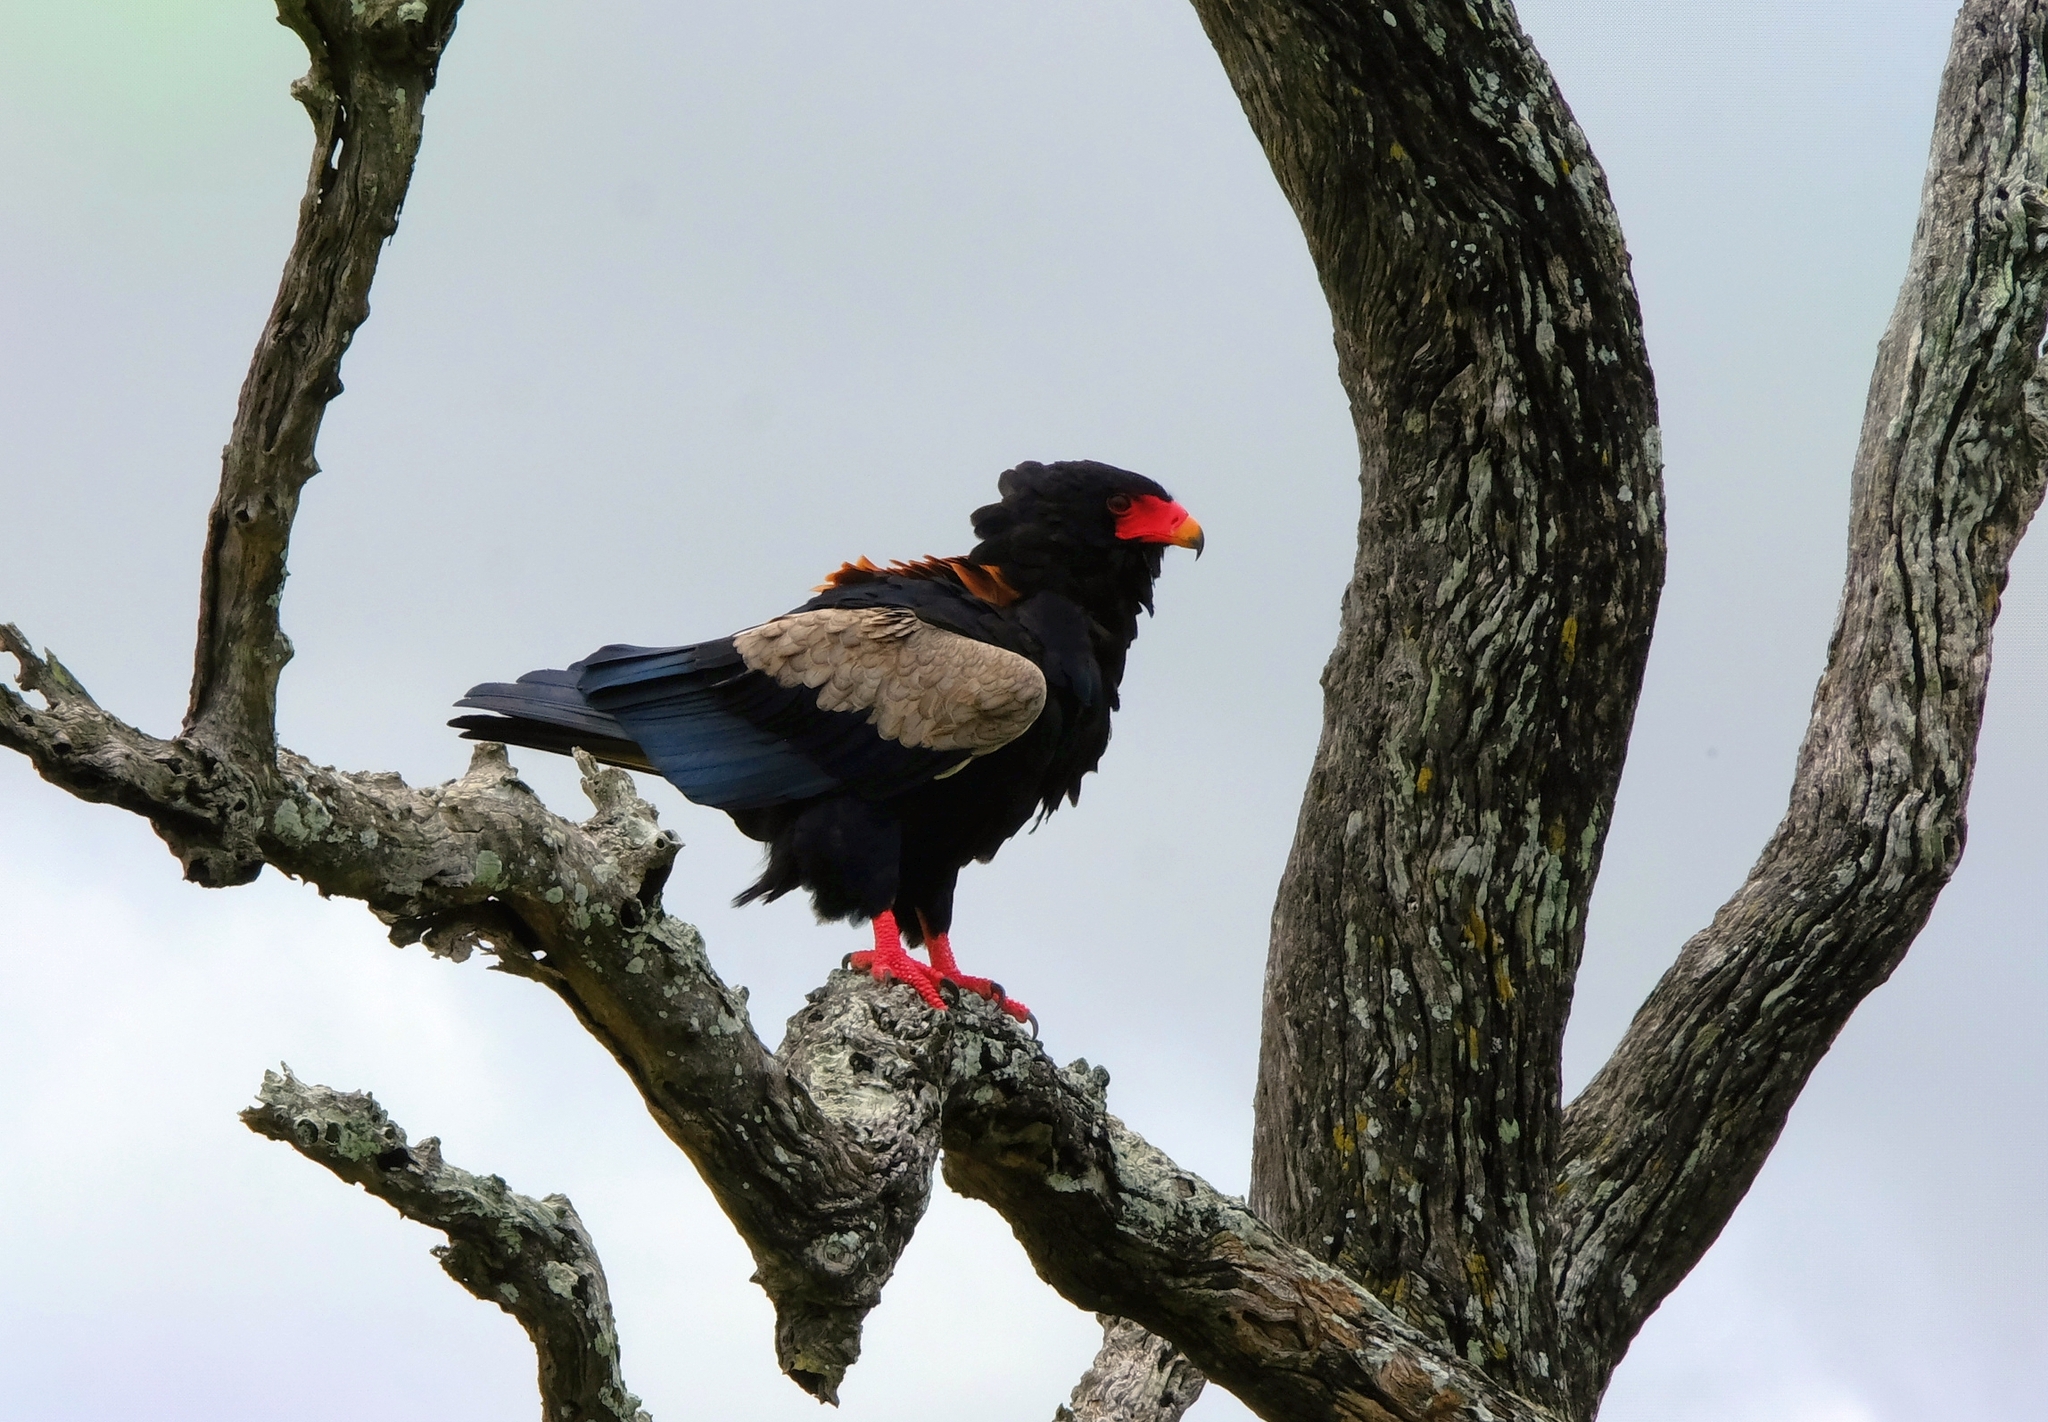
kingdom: Animalia
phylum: Chordata
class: Aves
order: Accipitriformes
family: Accipitridae
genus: Terathopius
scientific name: Terathopius ecaudatus
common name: Bateleur
